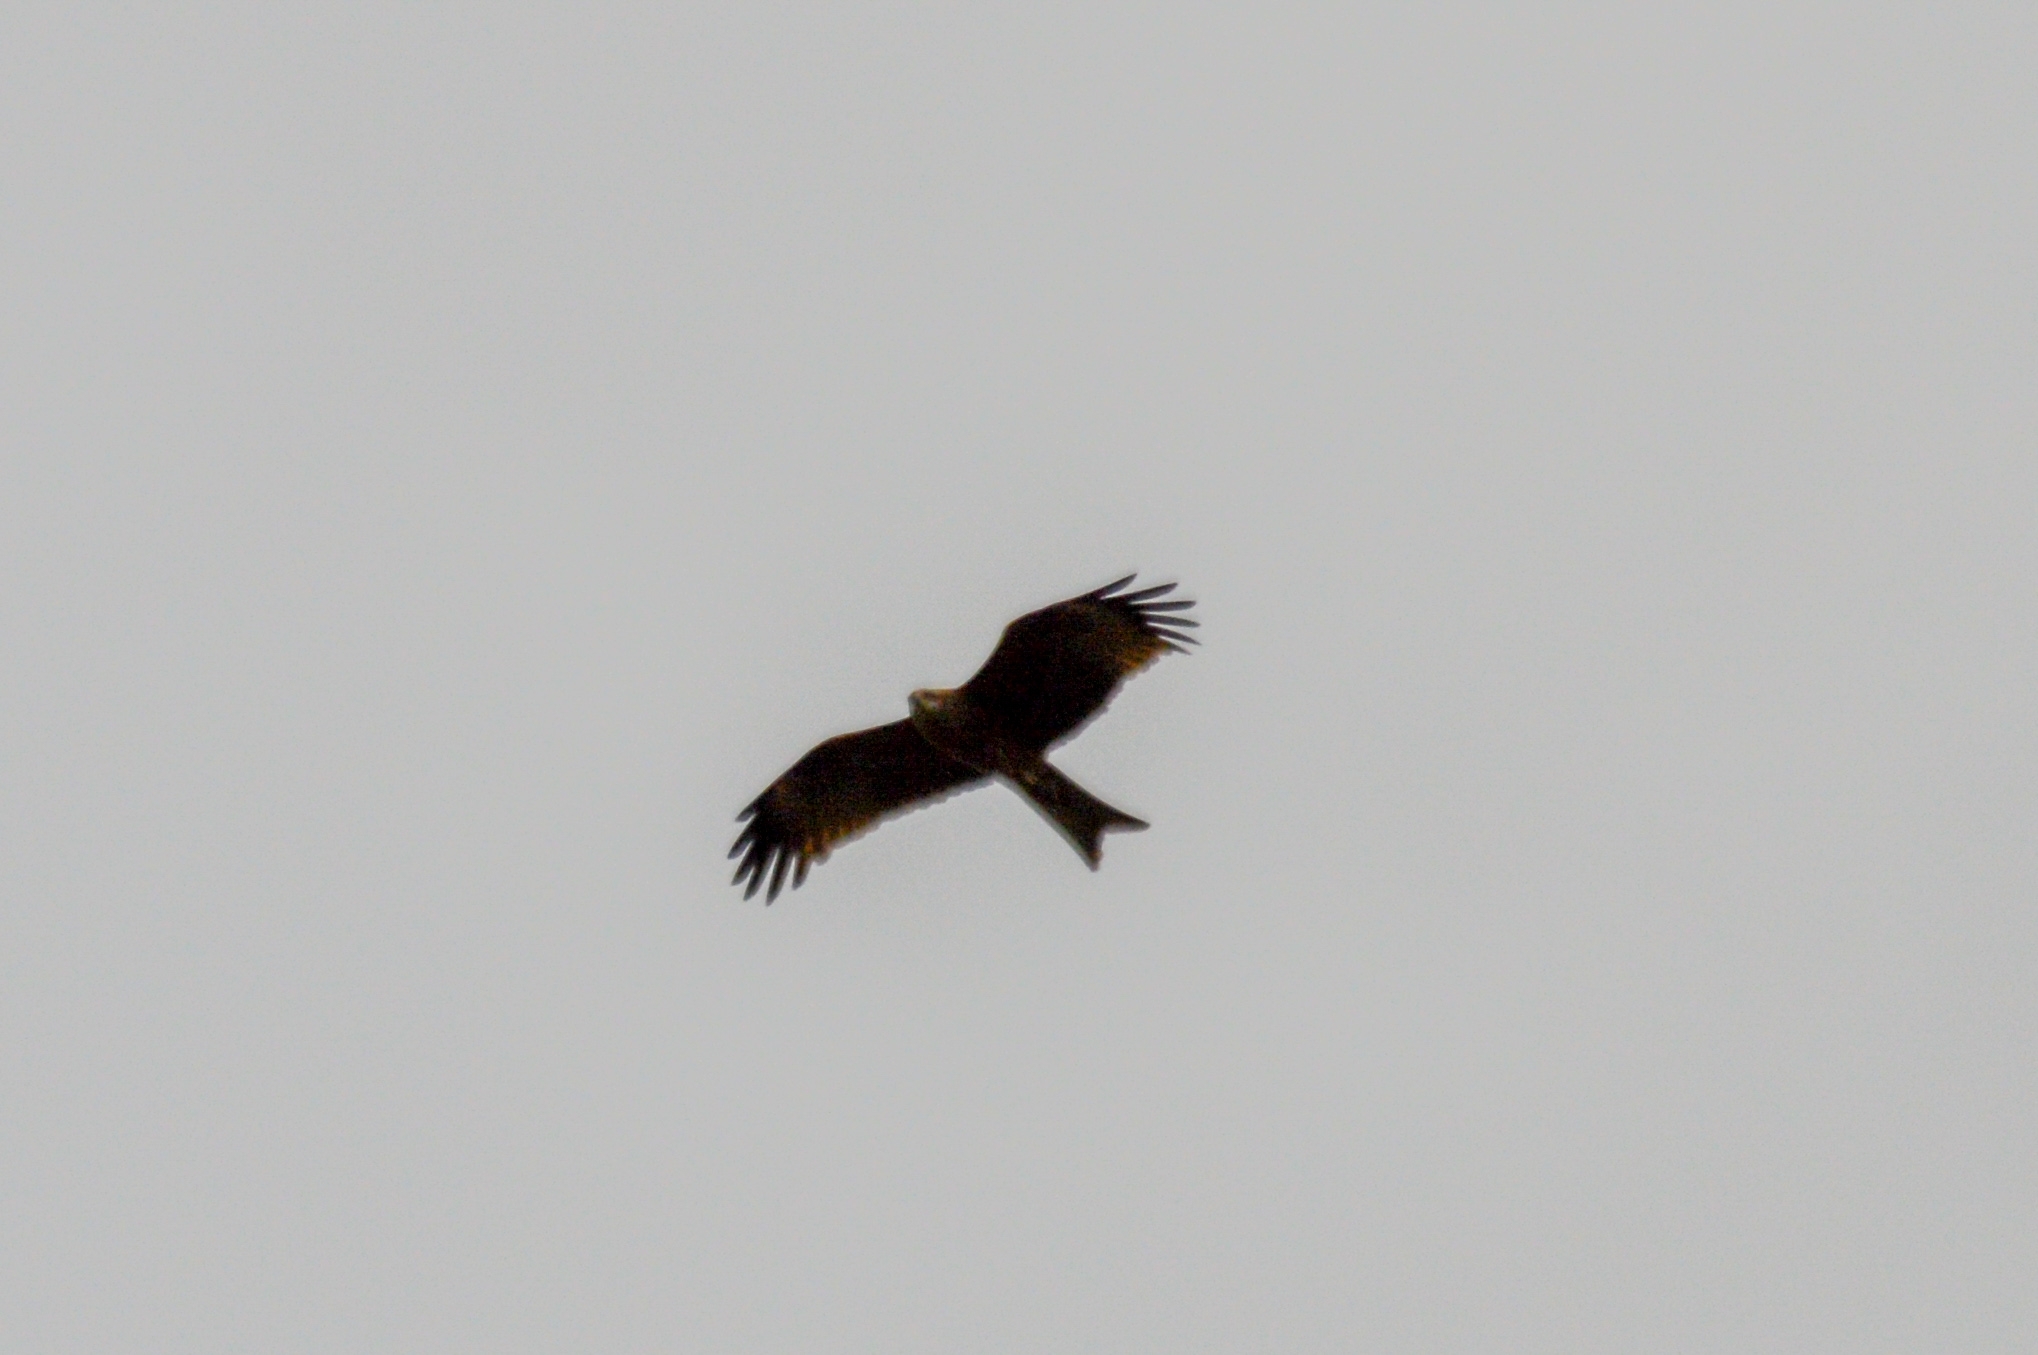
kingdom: Animalia
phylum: Chordata
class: Aves
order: Accipitriformes
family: Accipitridae
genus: Milvus
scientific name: Milvus migrans
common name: Black kite
